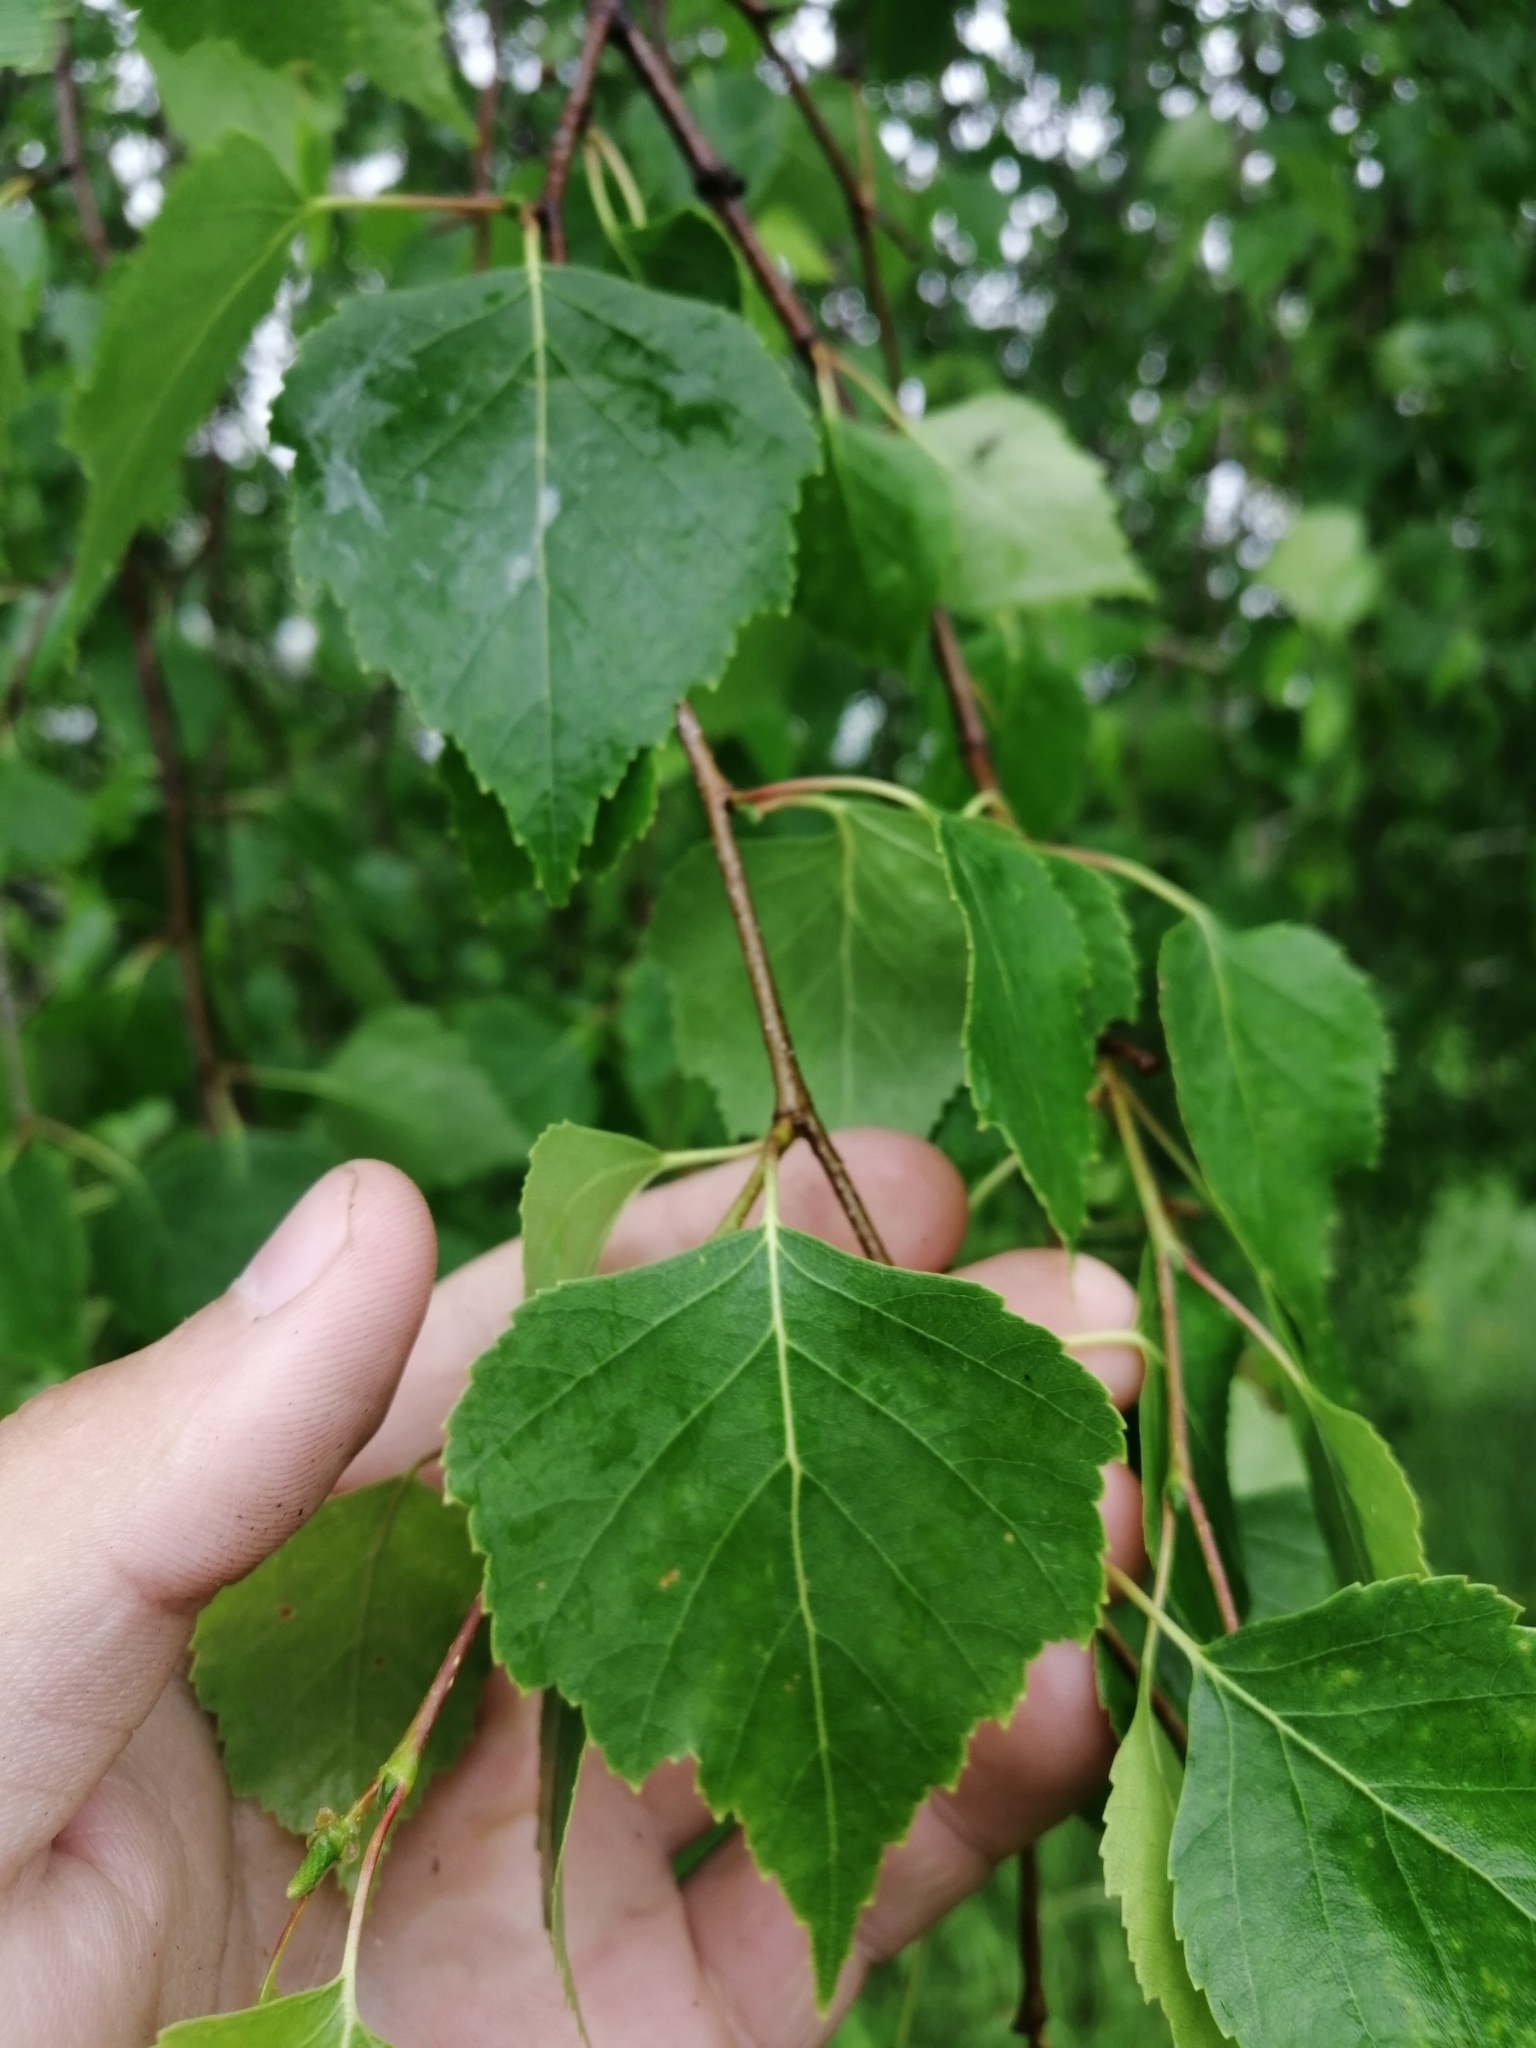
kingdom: Plantae
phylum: Tracheophyta
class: Magnoliopsida
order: Fagales
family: Betulaceae
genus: Betula
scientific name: Betula pendula
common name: Silver birch
